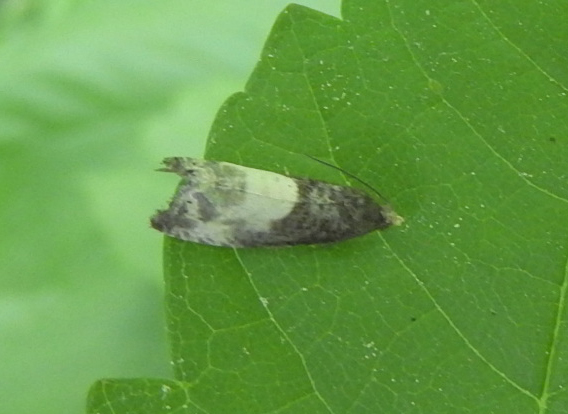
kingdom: Animalia
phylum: Arthropoda
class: Insecta
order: Lepidoptera
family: Tortricidae
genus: Notocelia
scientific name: Notocelia cynosbatella
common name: Yellow-faced bell moth
